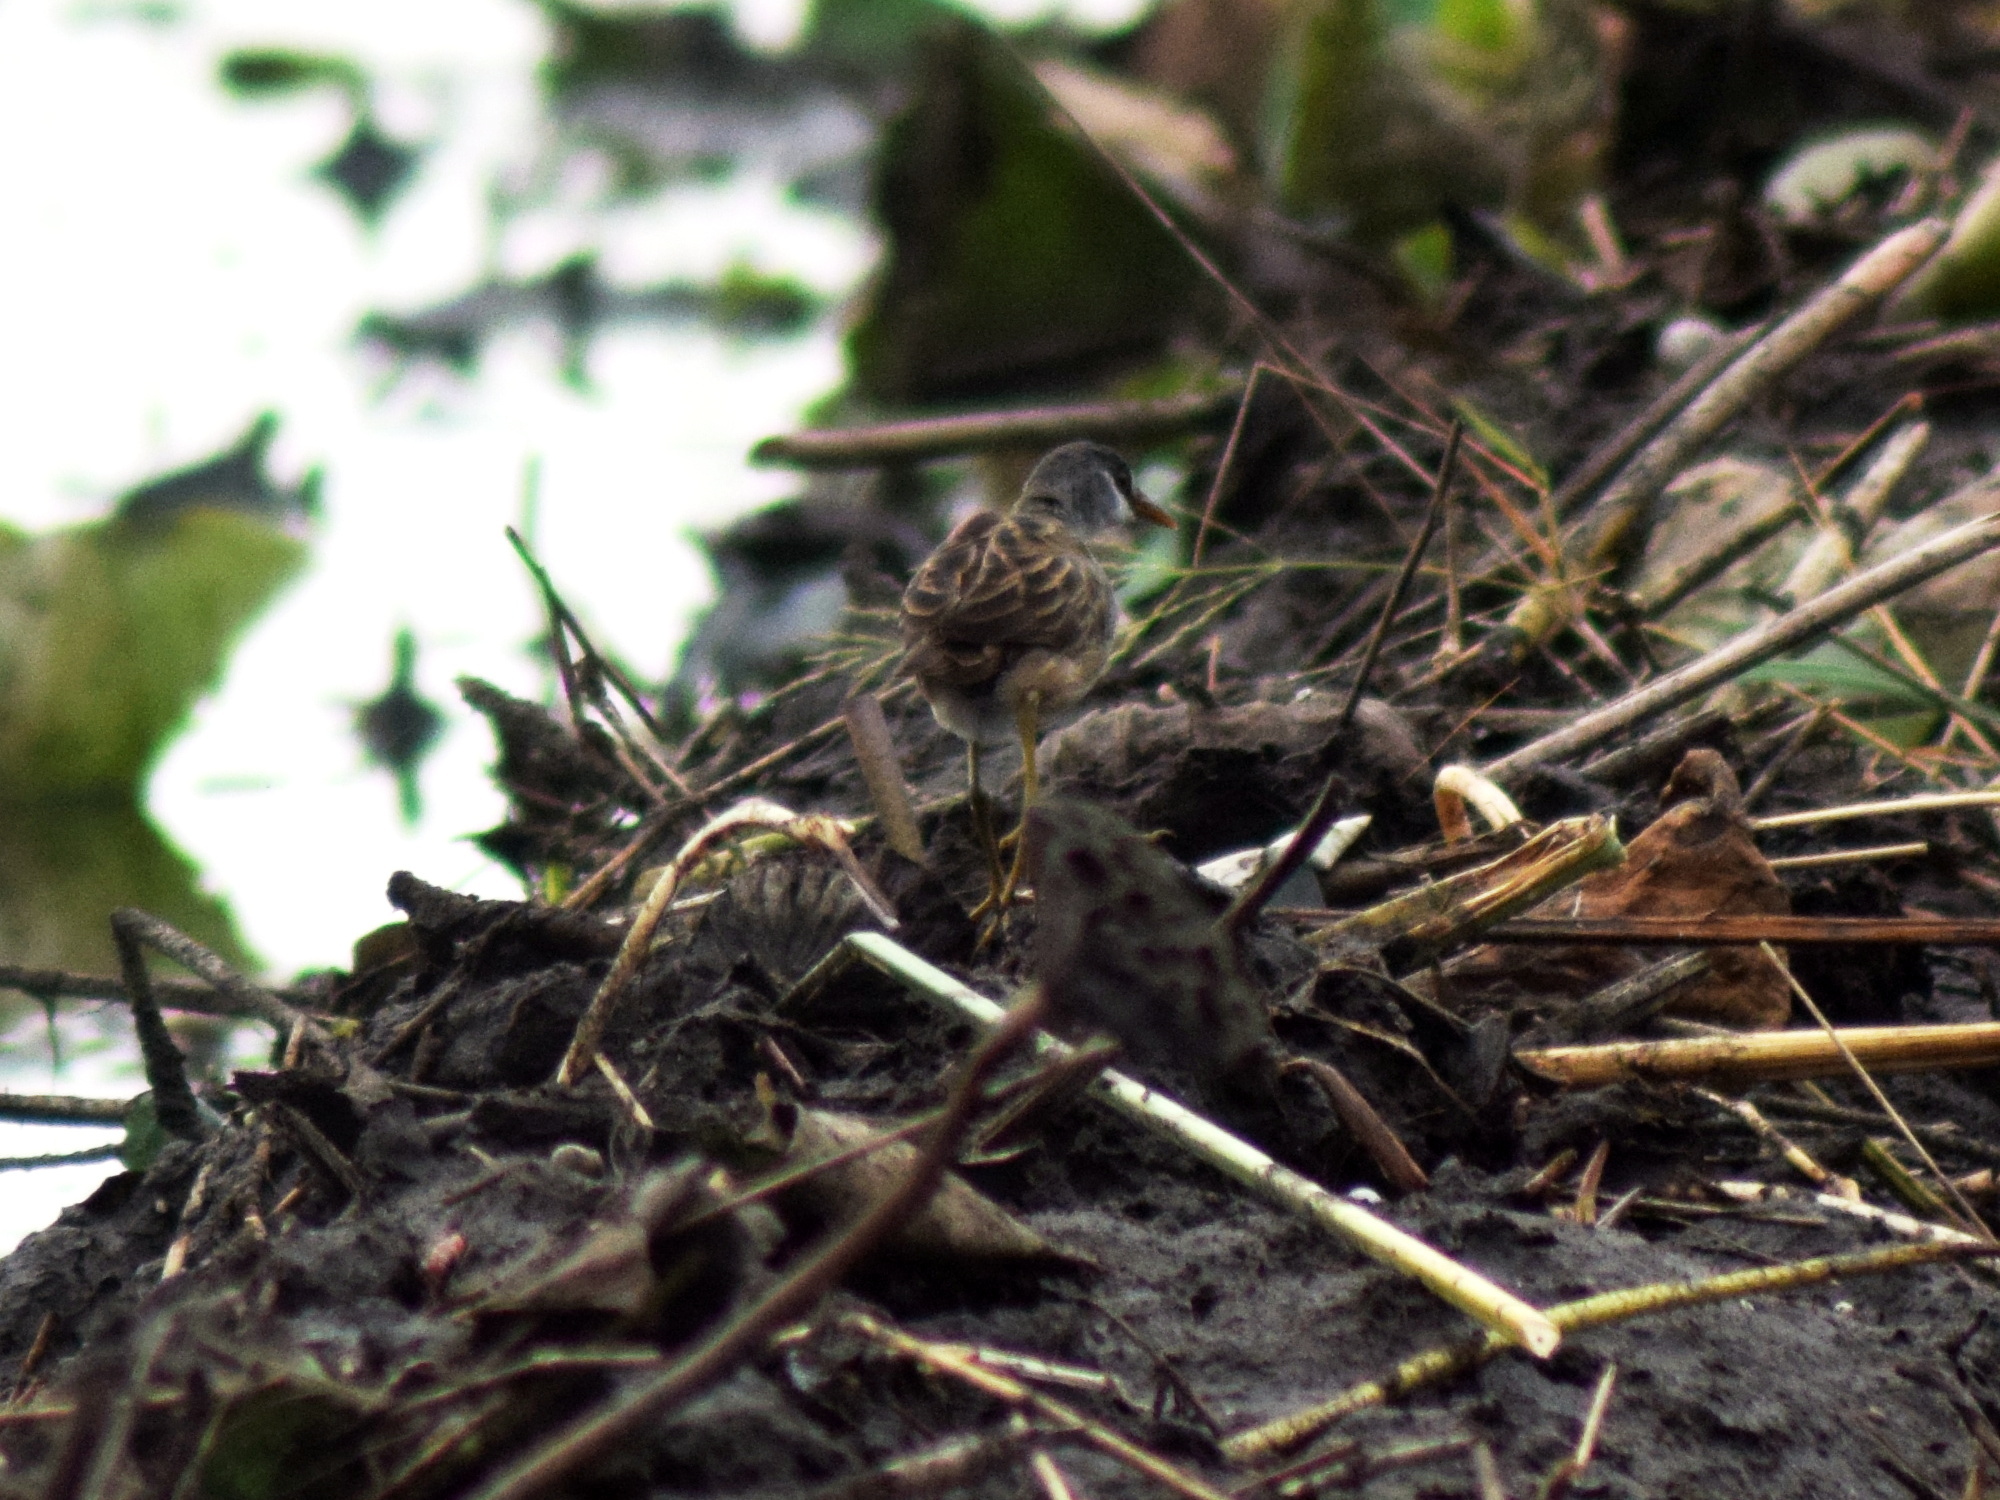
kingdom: Animalia
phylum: Chordata
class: Aves
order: Gruiformes
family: Rallidae
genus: Porzana
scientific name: Porzana cinerea
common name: White-browed crake
